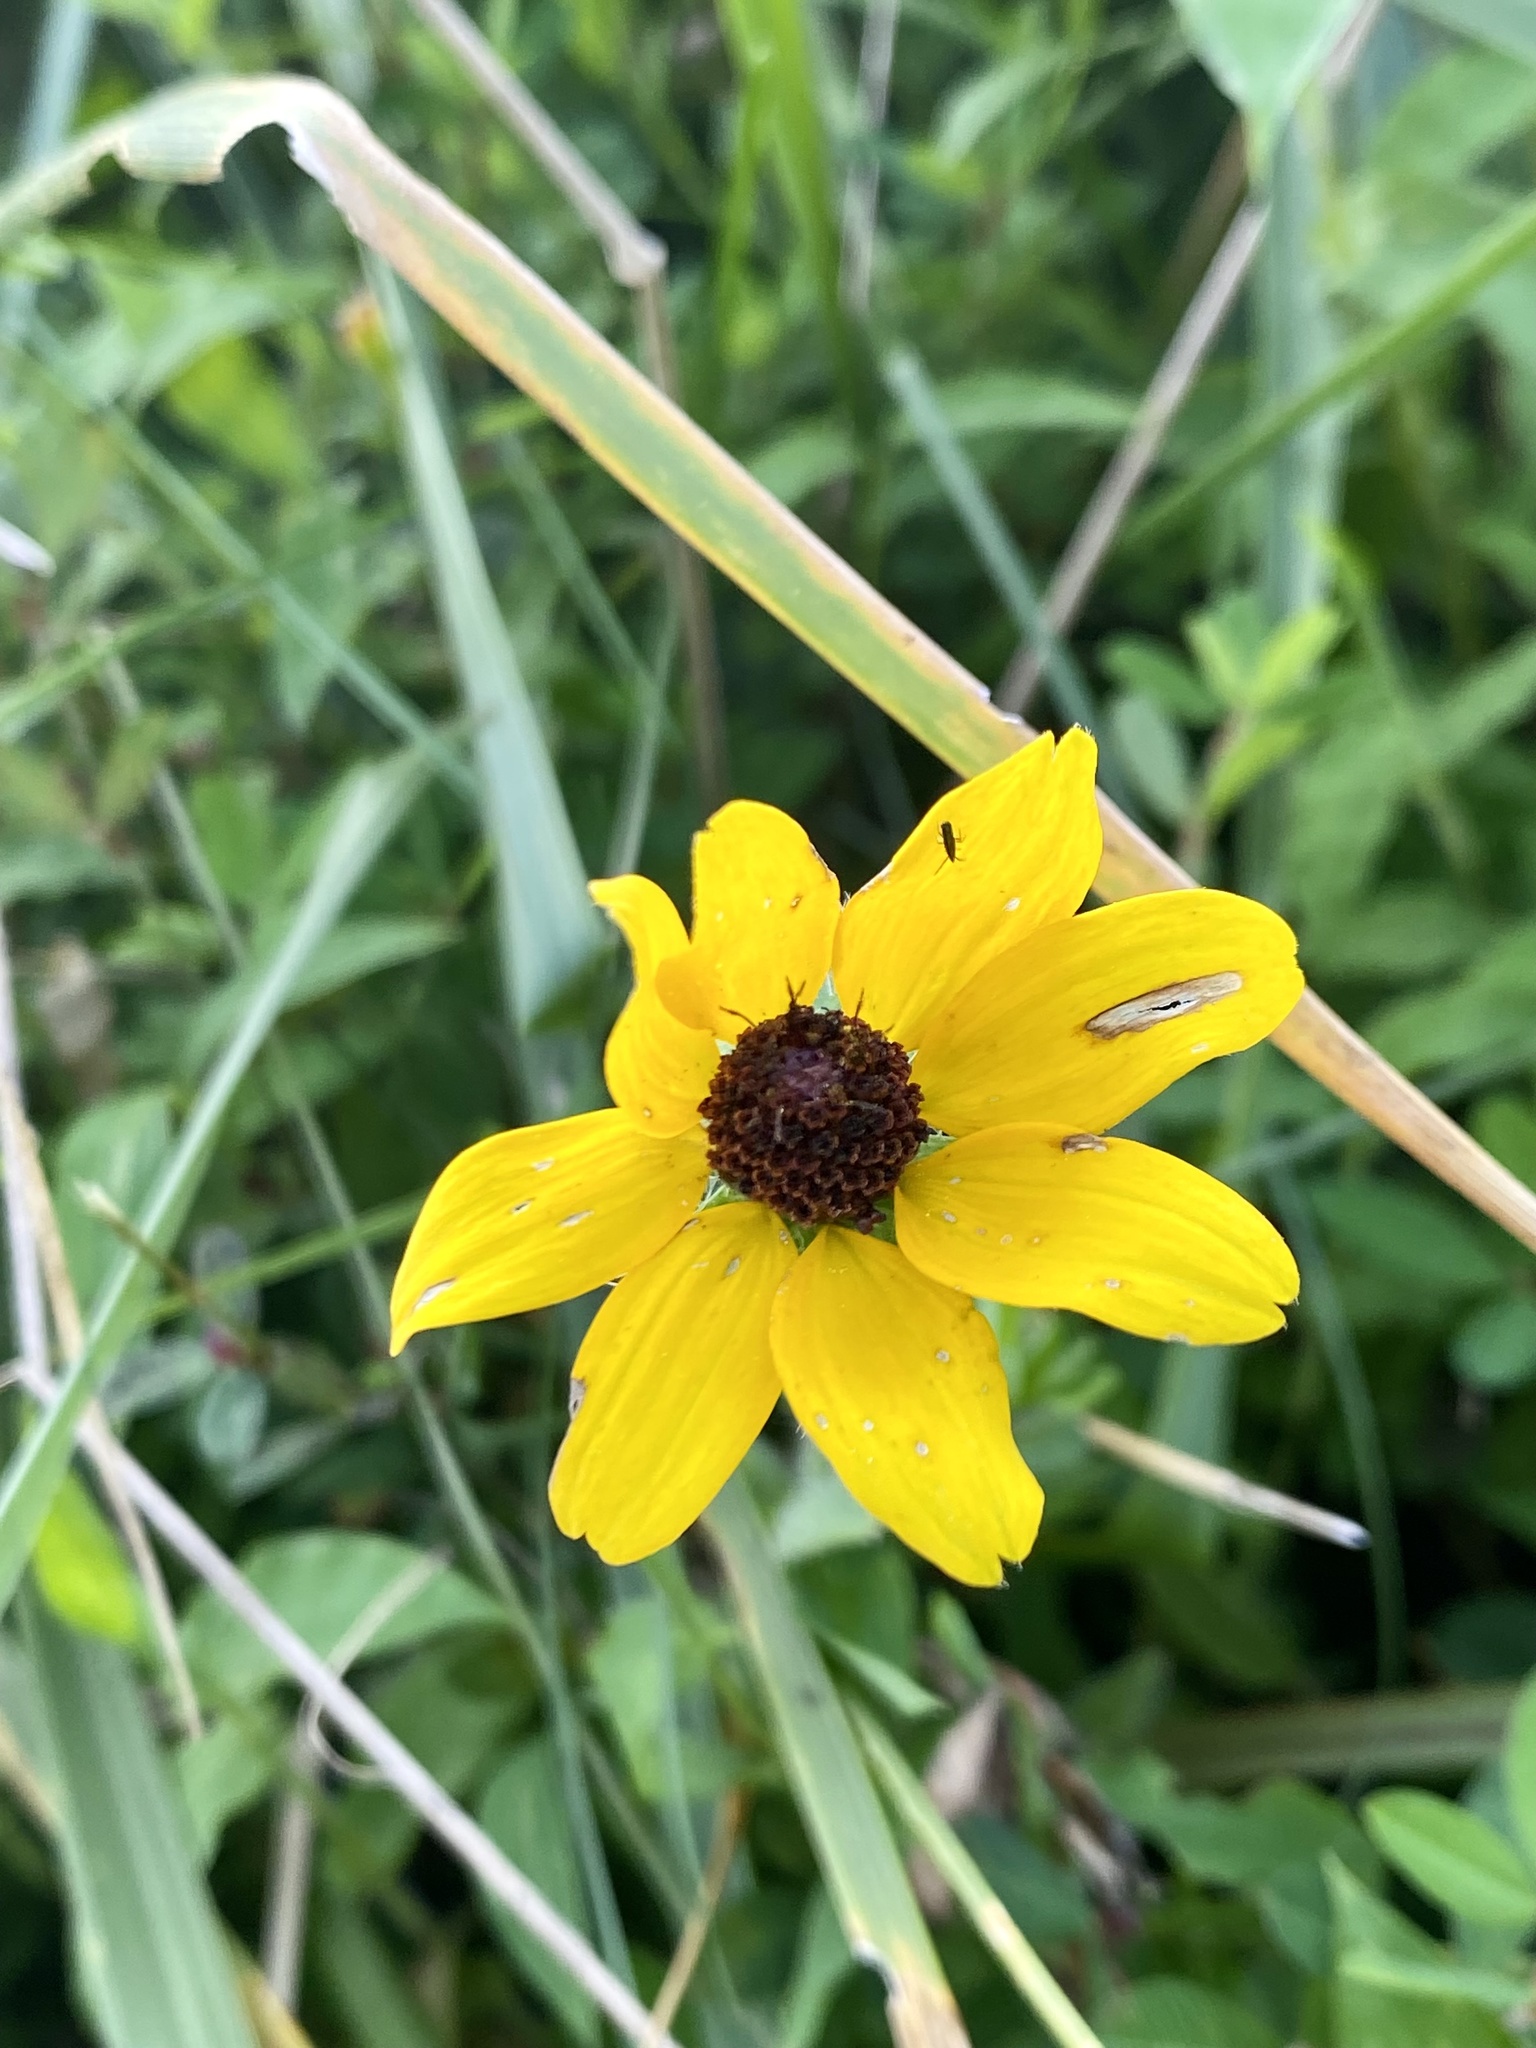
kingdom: Plantae
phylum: Tracheophyta
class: Magnoliopsida
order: Asterales
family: Asteraceae
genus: Rudbeckia
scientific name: Rudbeckia hirta
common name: Black-eyed-susan
